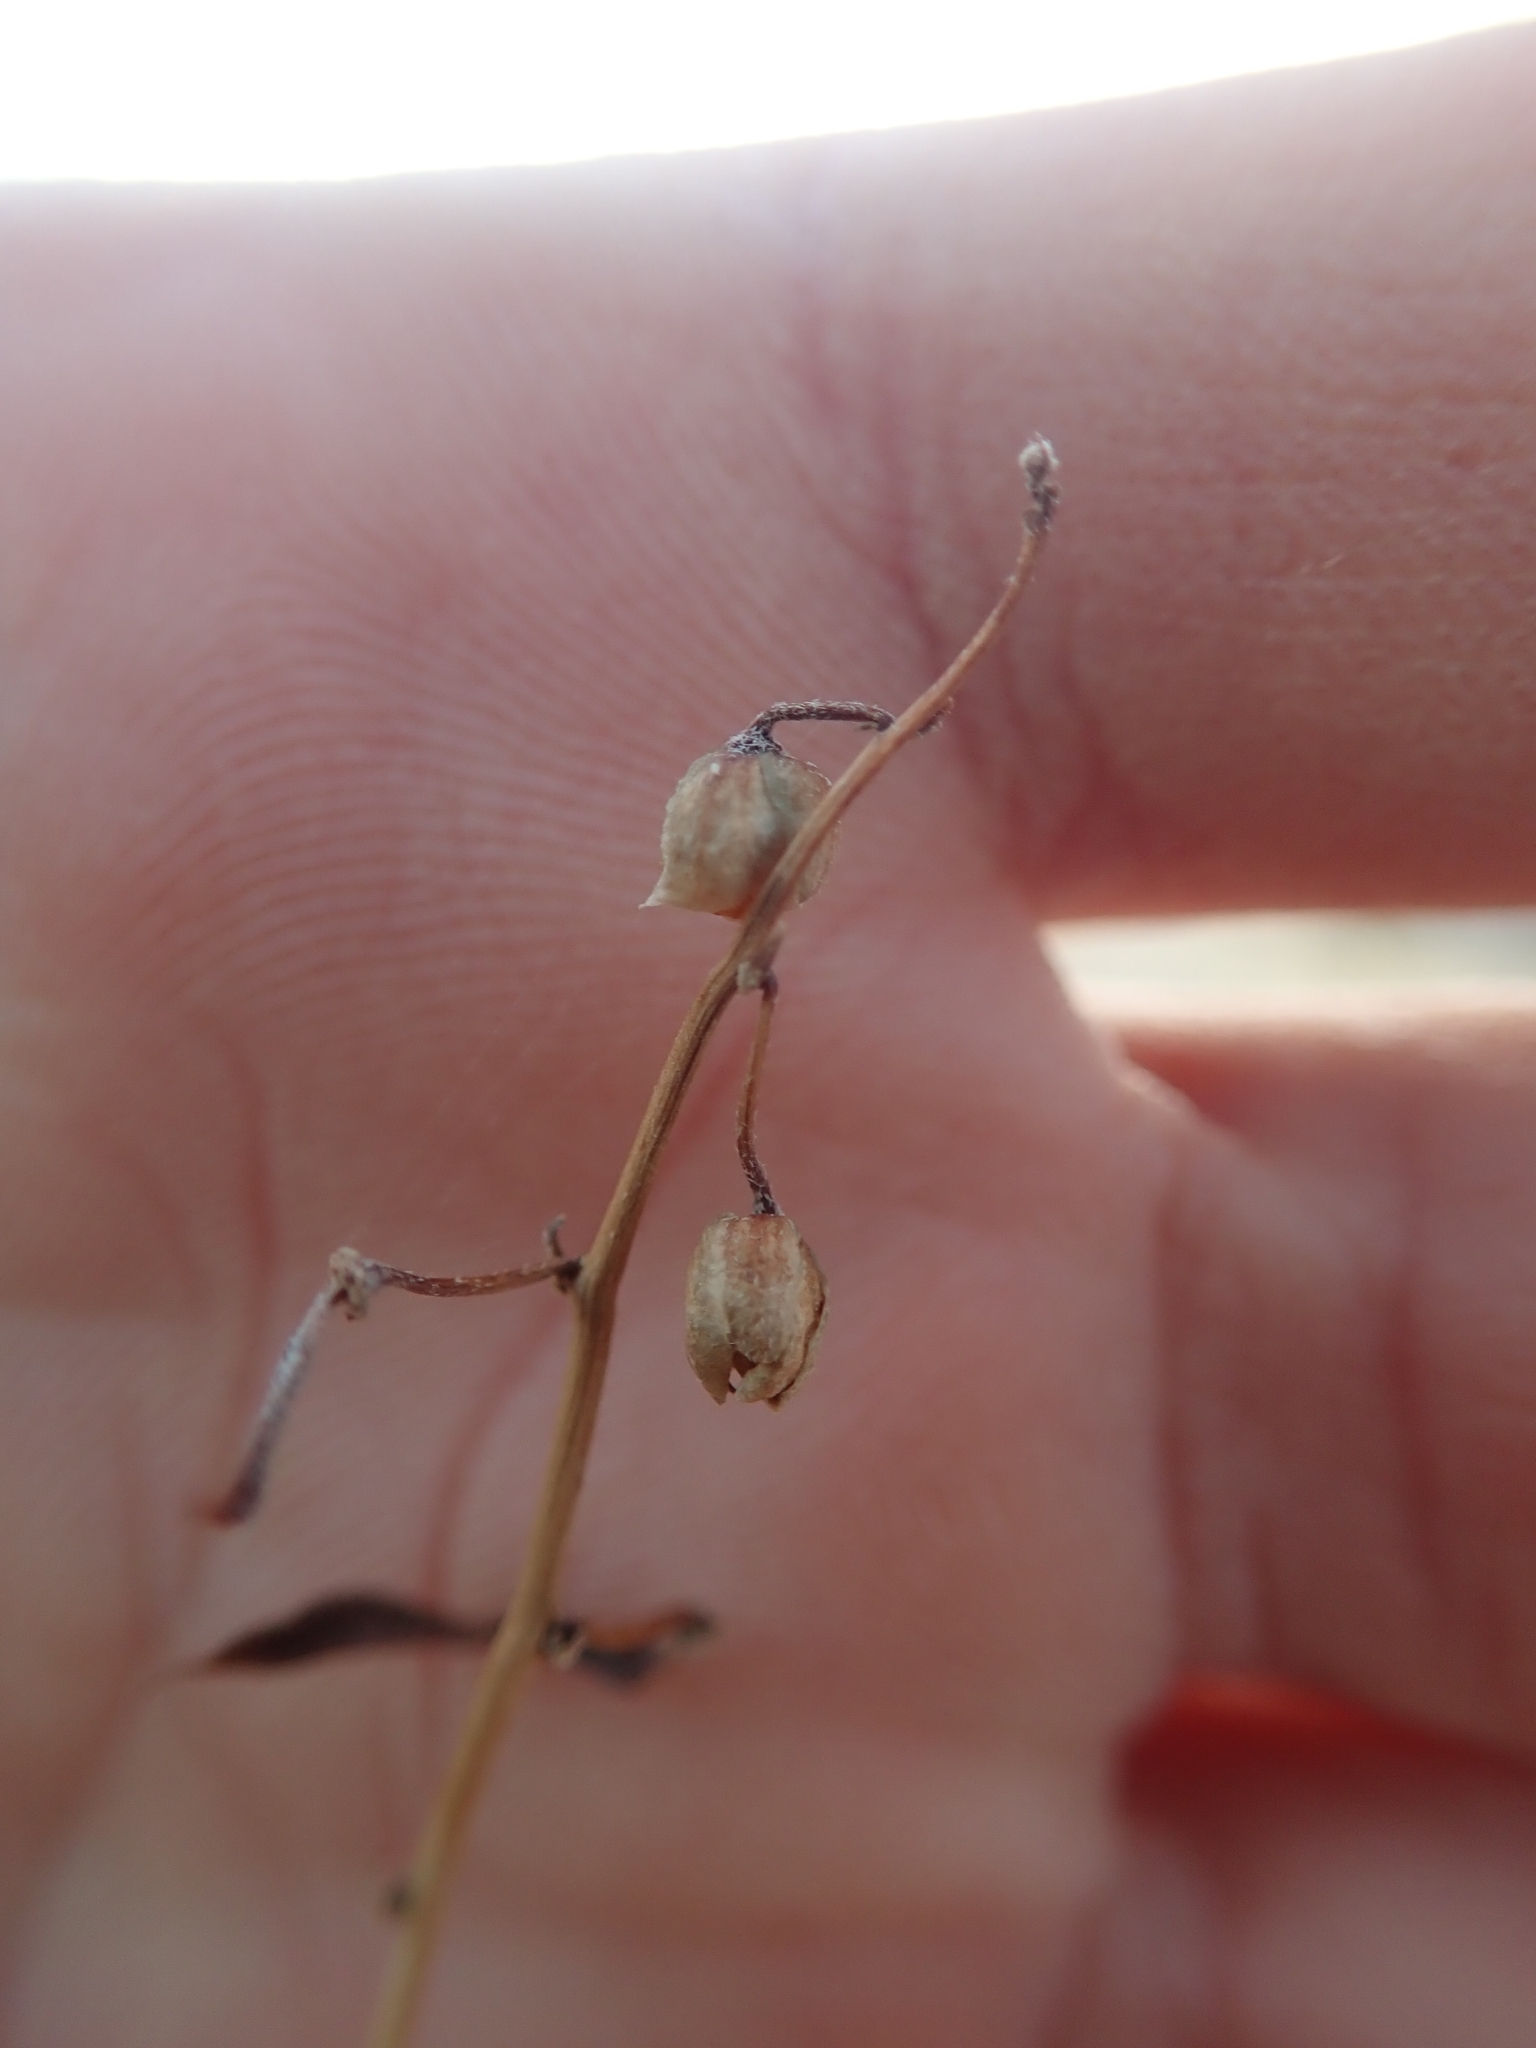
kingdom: Plantae
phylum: Tracheophyta
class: Magnoliopsida
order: Fabales
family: Fabaceae
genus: Senna
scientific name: Senna armata
